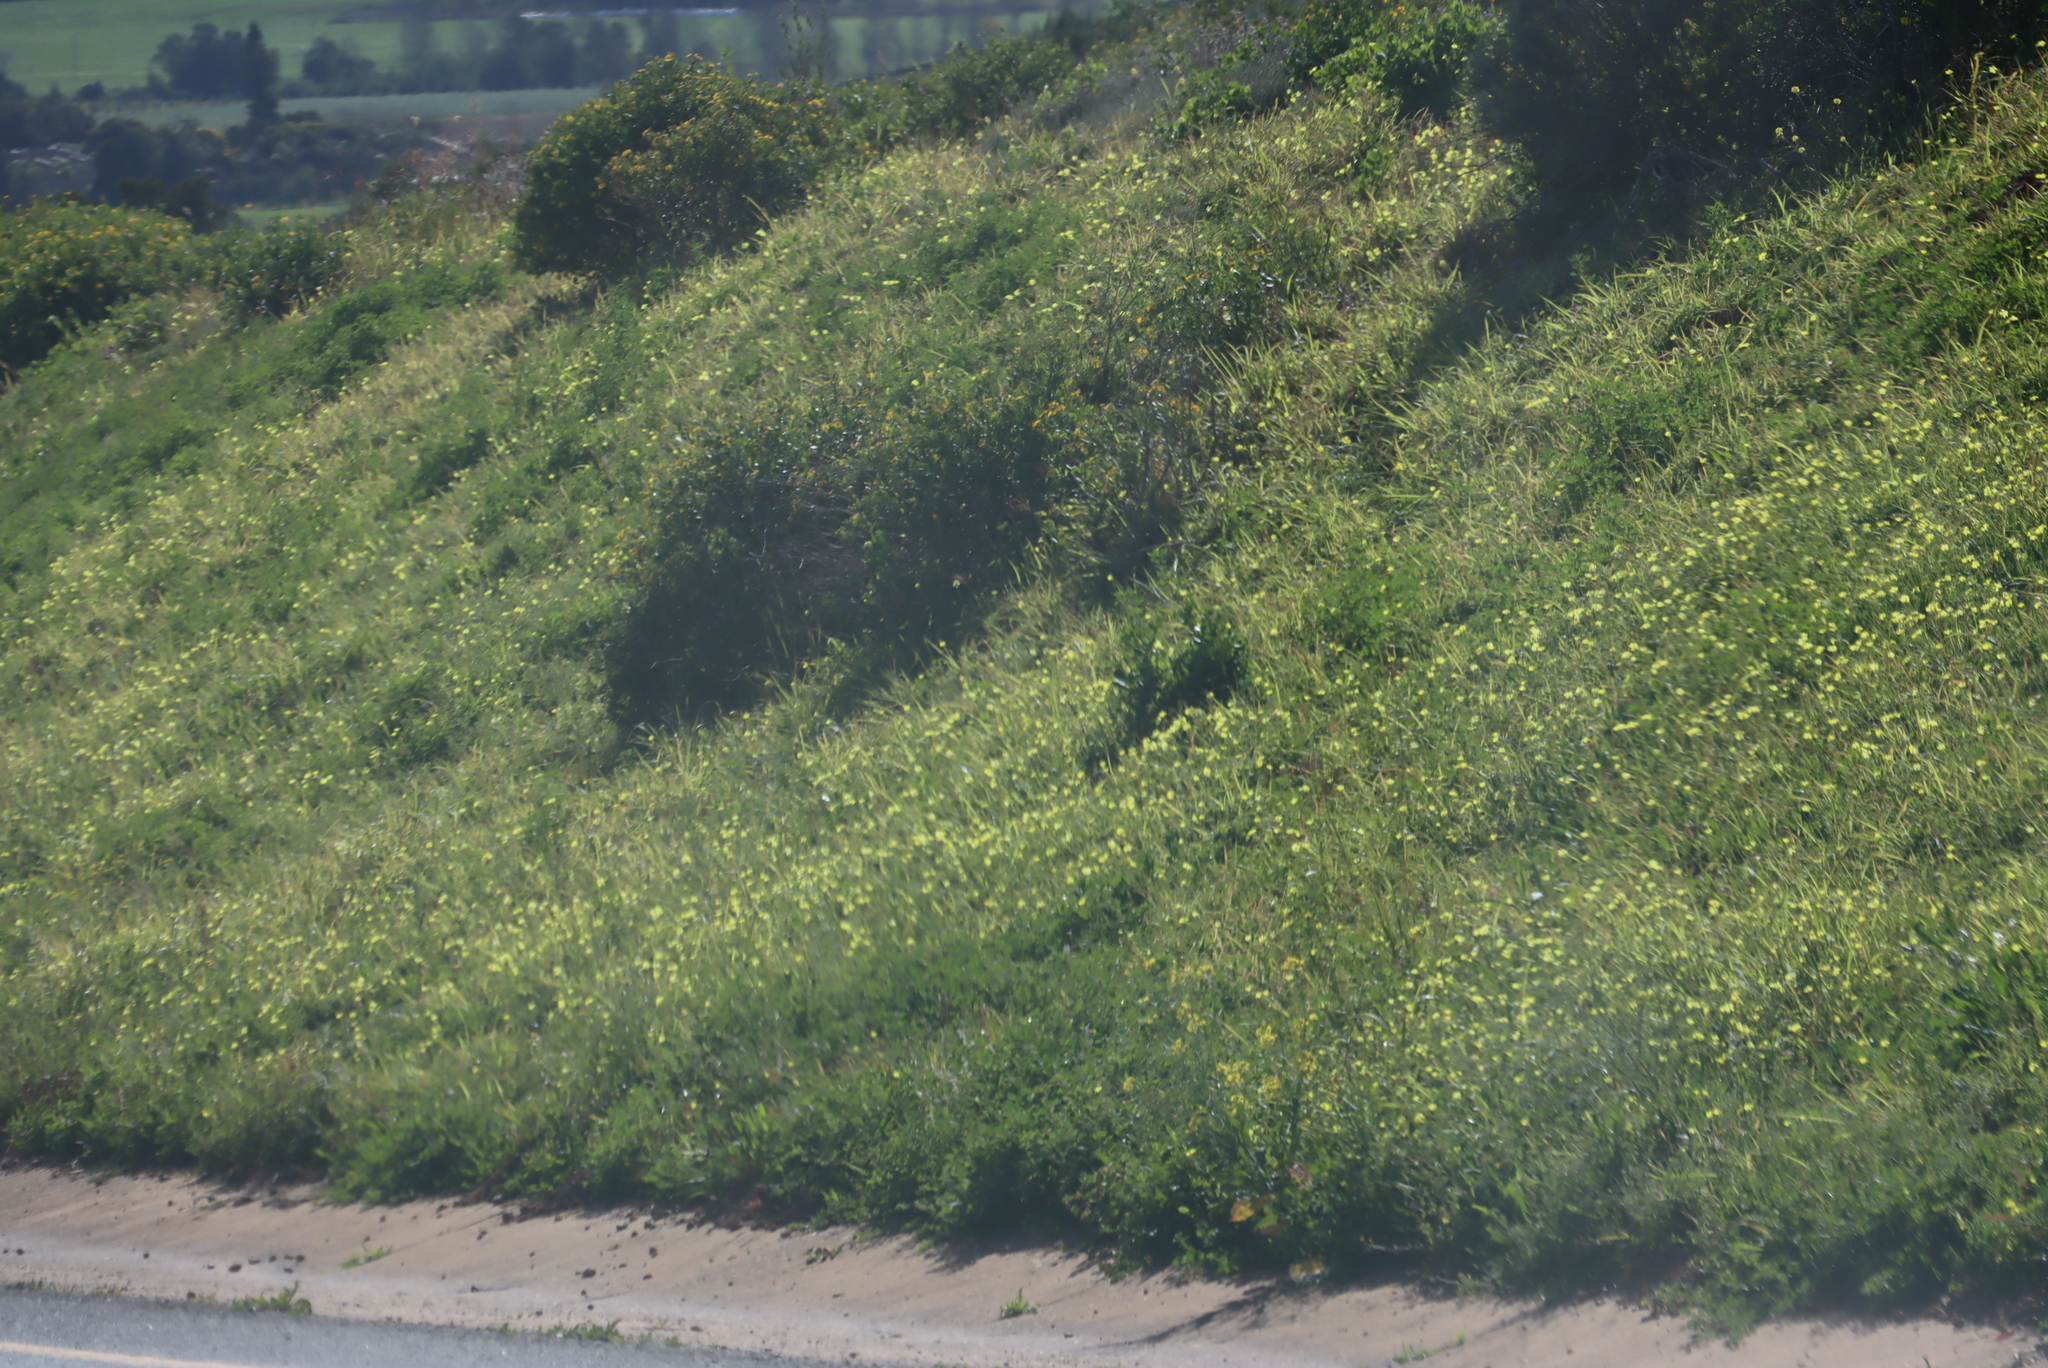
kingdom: Plantae
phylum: Tracheophyta
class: Magnoliopsida
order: Oxalidales
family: Oxalidaceae
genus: Oxalis
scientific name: Oxalis pes-caprae
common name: Bermuda-buttercup
